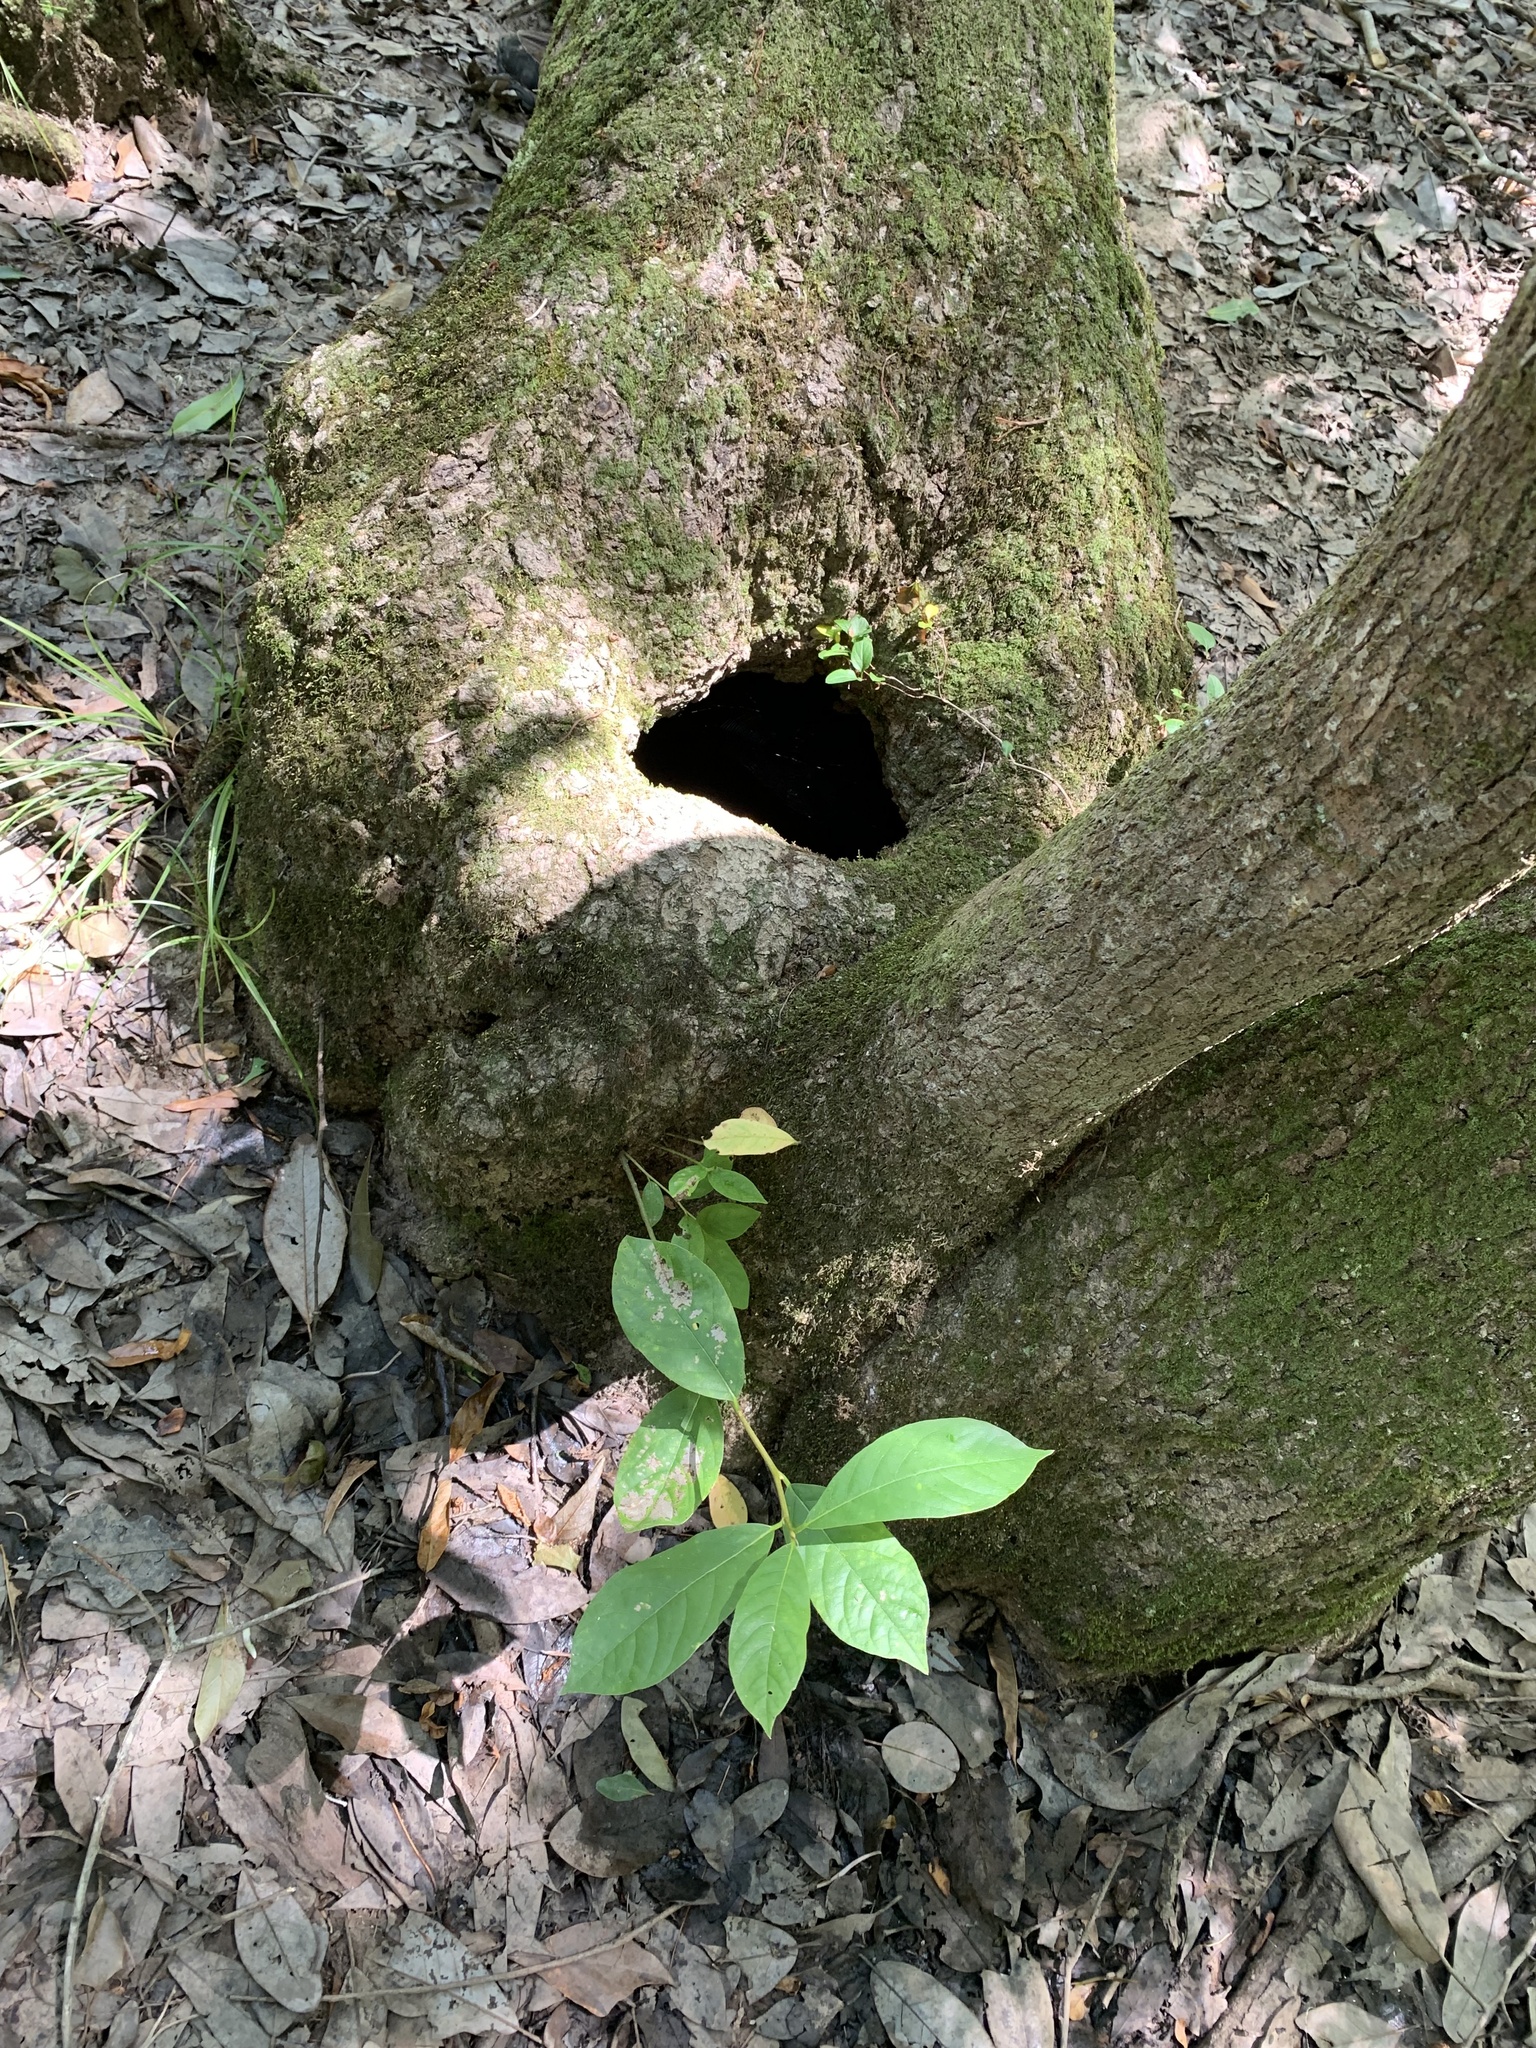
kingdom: Plantae
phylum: Tracheophyta
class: Magnoliopsida
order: Cornales
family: Nyssaceae
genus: Nyssa
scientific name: Nyssa aquatica
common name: Swamp tupelo
